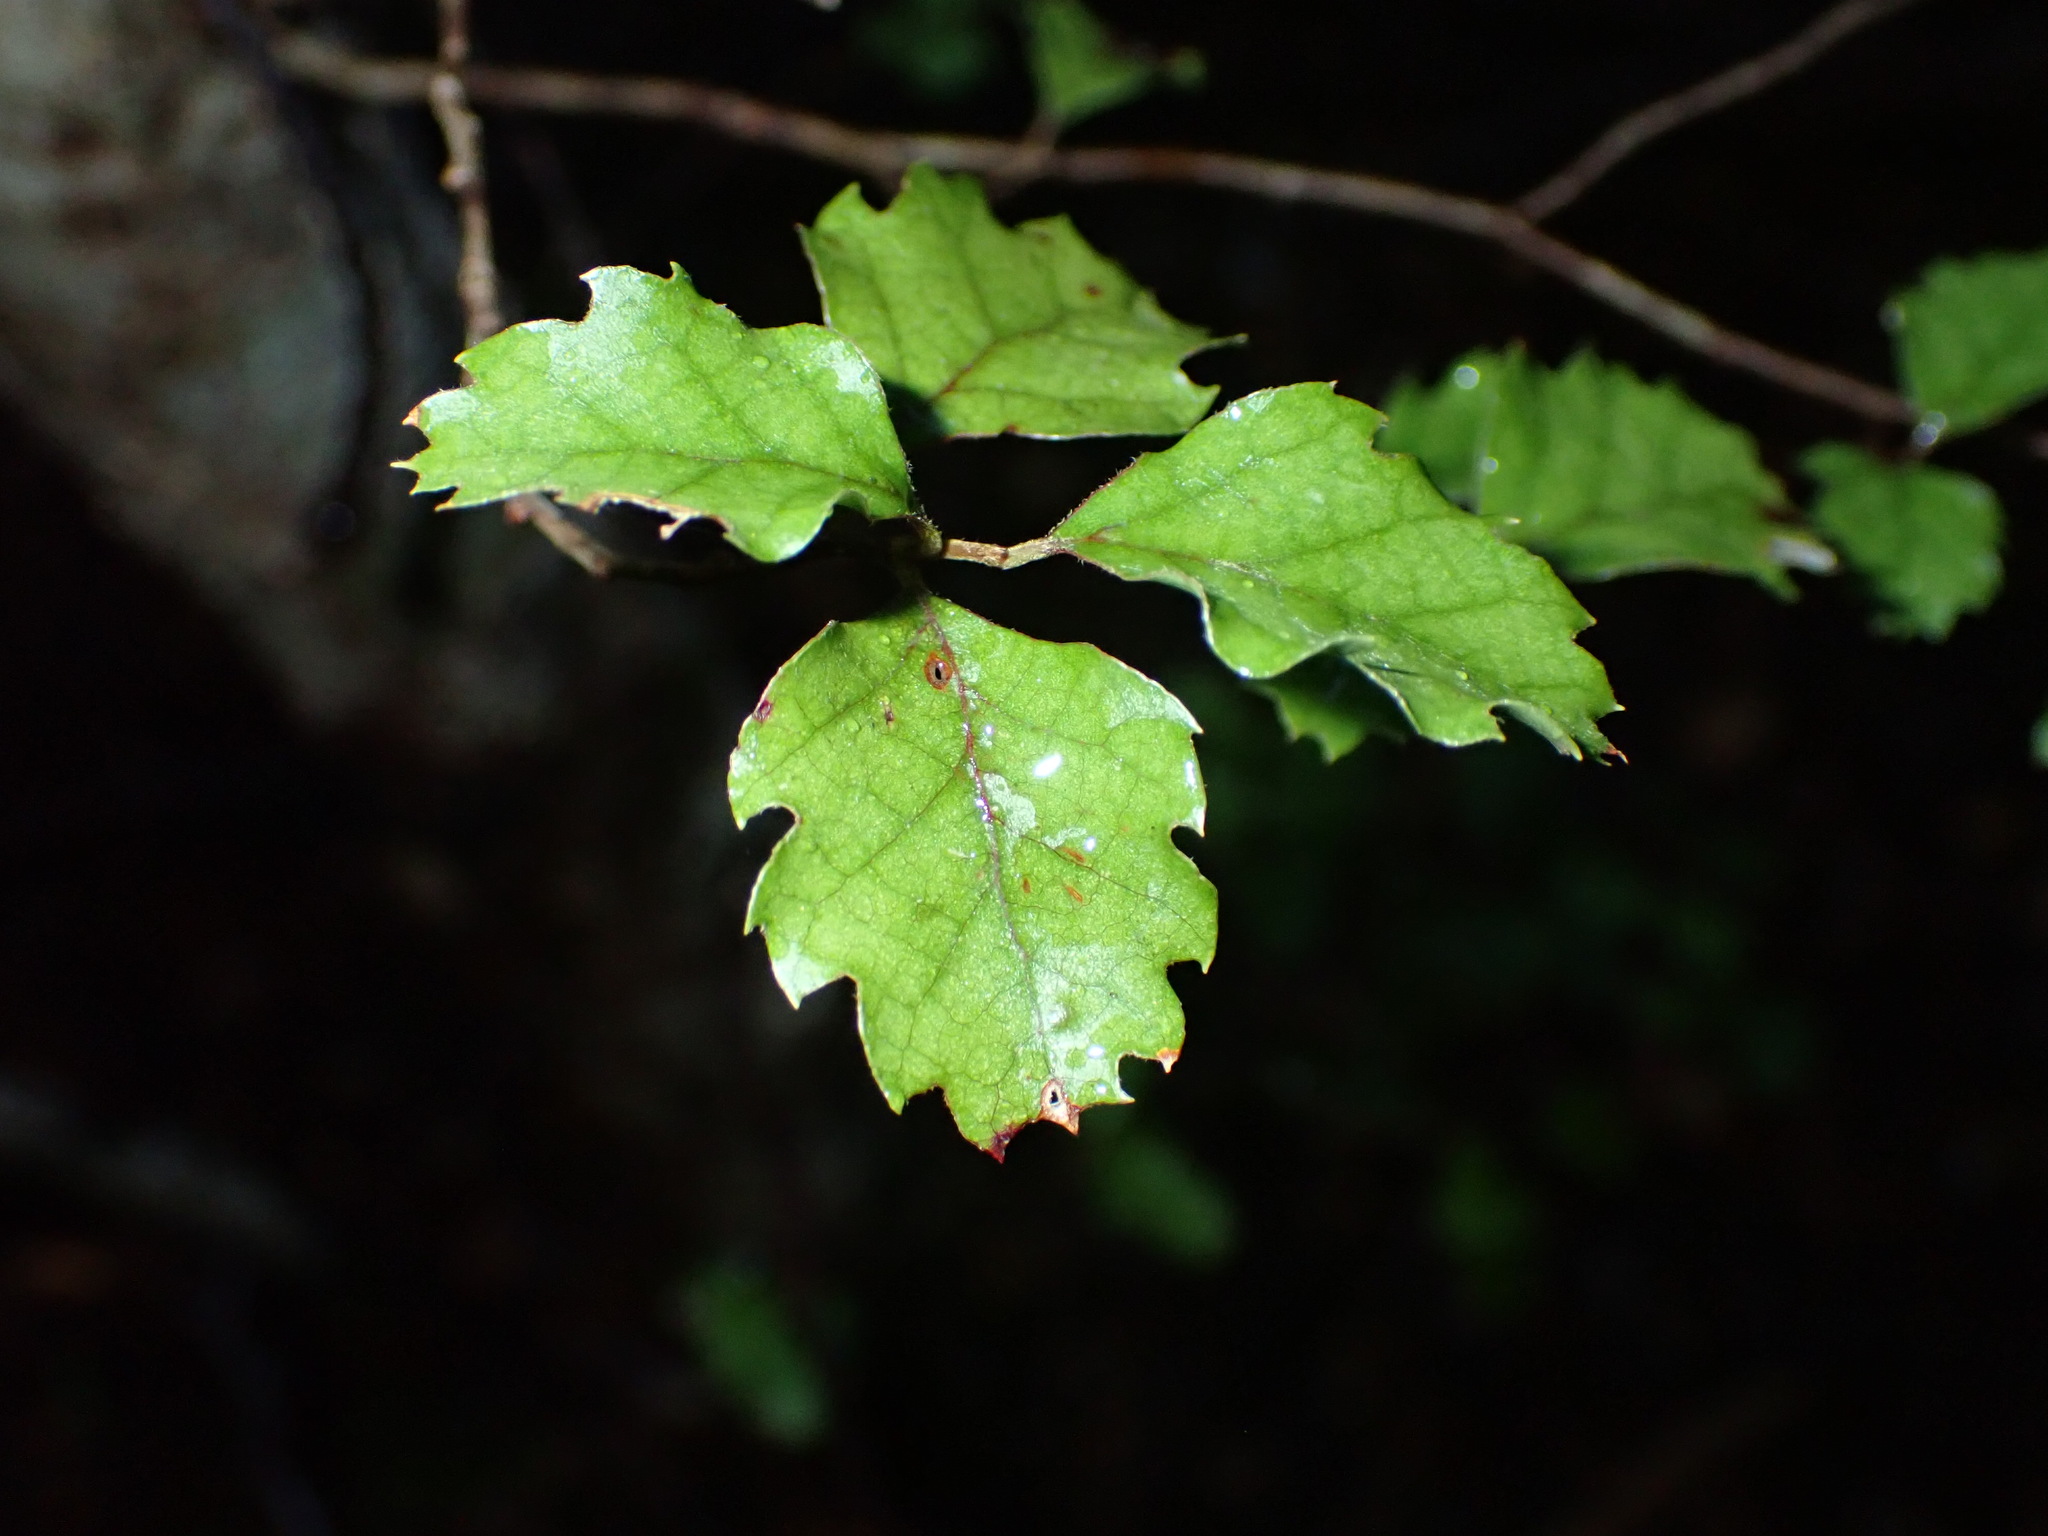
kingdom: Plantae
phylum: Tracheophyta
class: Magnoliopsida
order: Fagales
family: Nothofagaceae
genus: Nothofagus
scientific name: Nothofagus fusca
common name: Red beech
